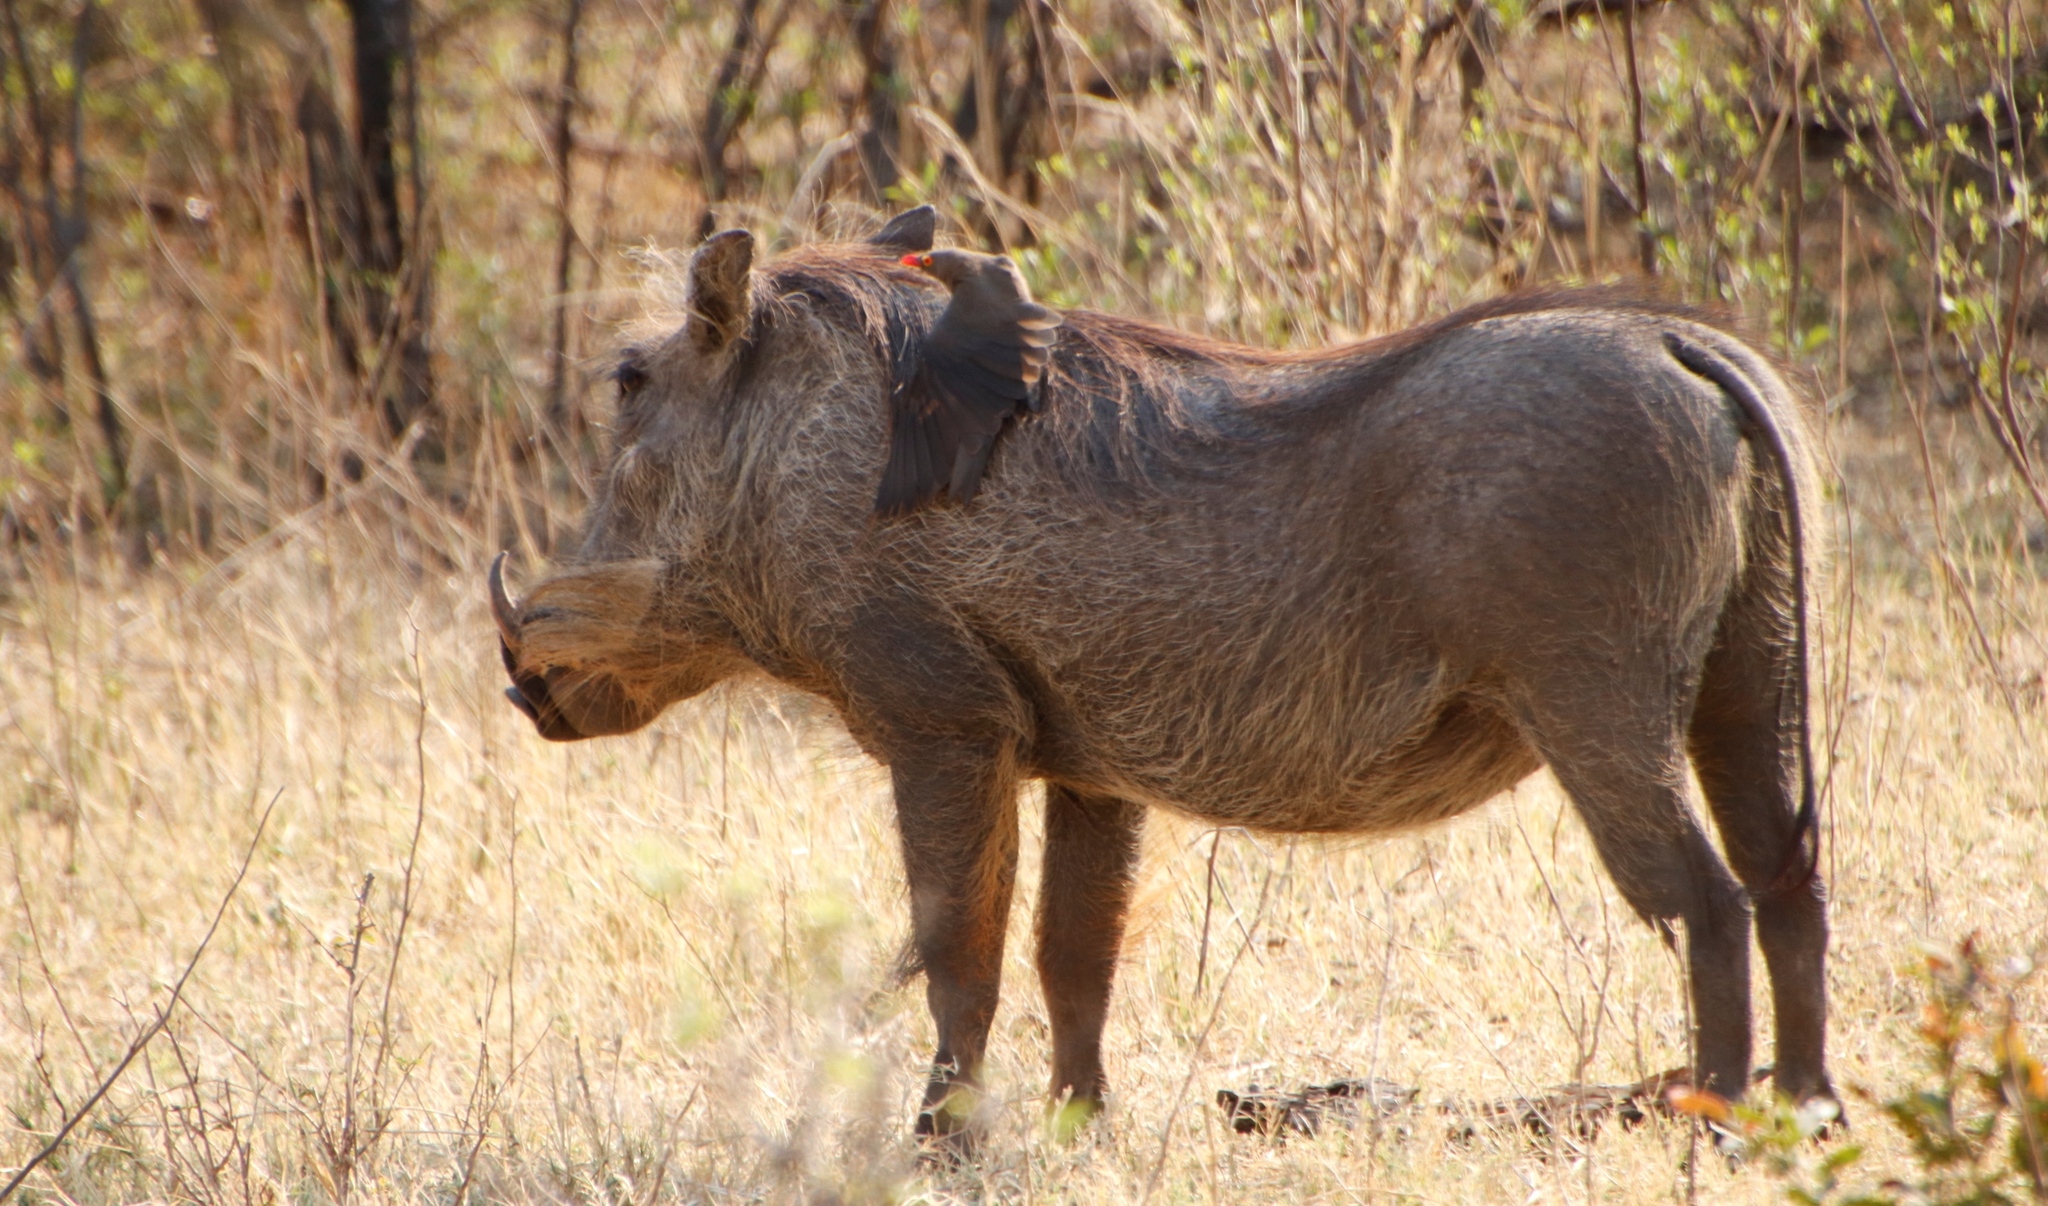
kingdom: Animalia
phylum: Chordata
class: Aves
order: Passeriformes
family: Buphagidae
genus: Buphagus
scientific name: Buphagus erythrorhynchus
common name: Red-billed oxpecker
